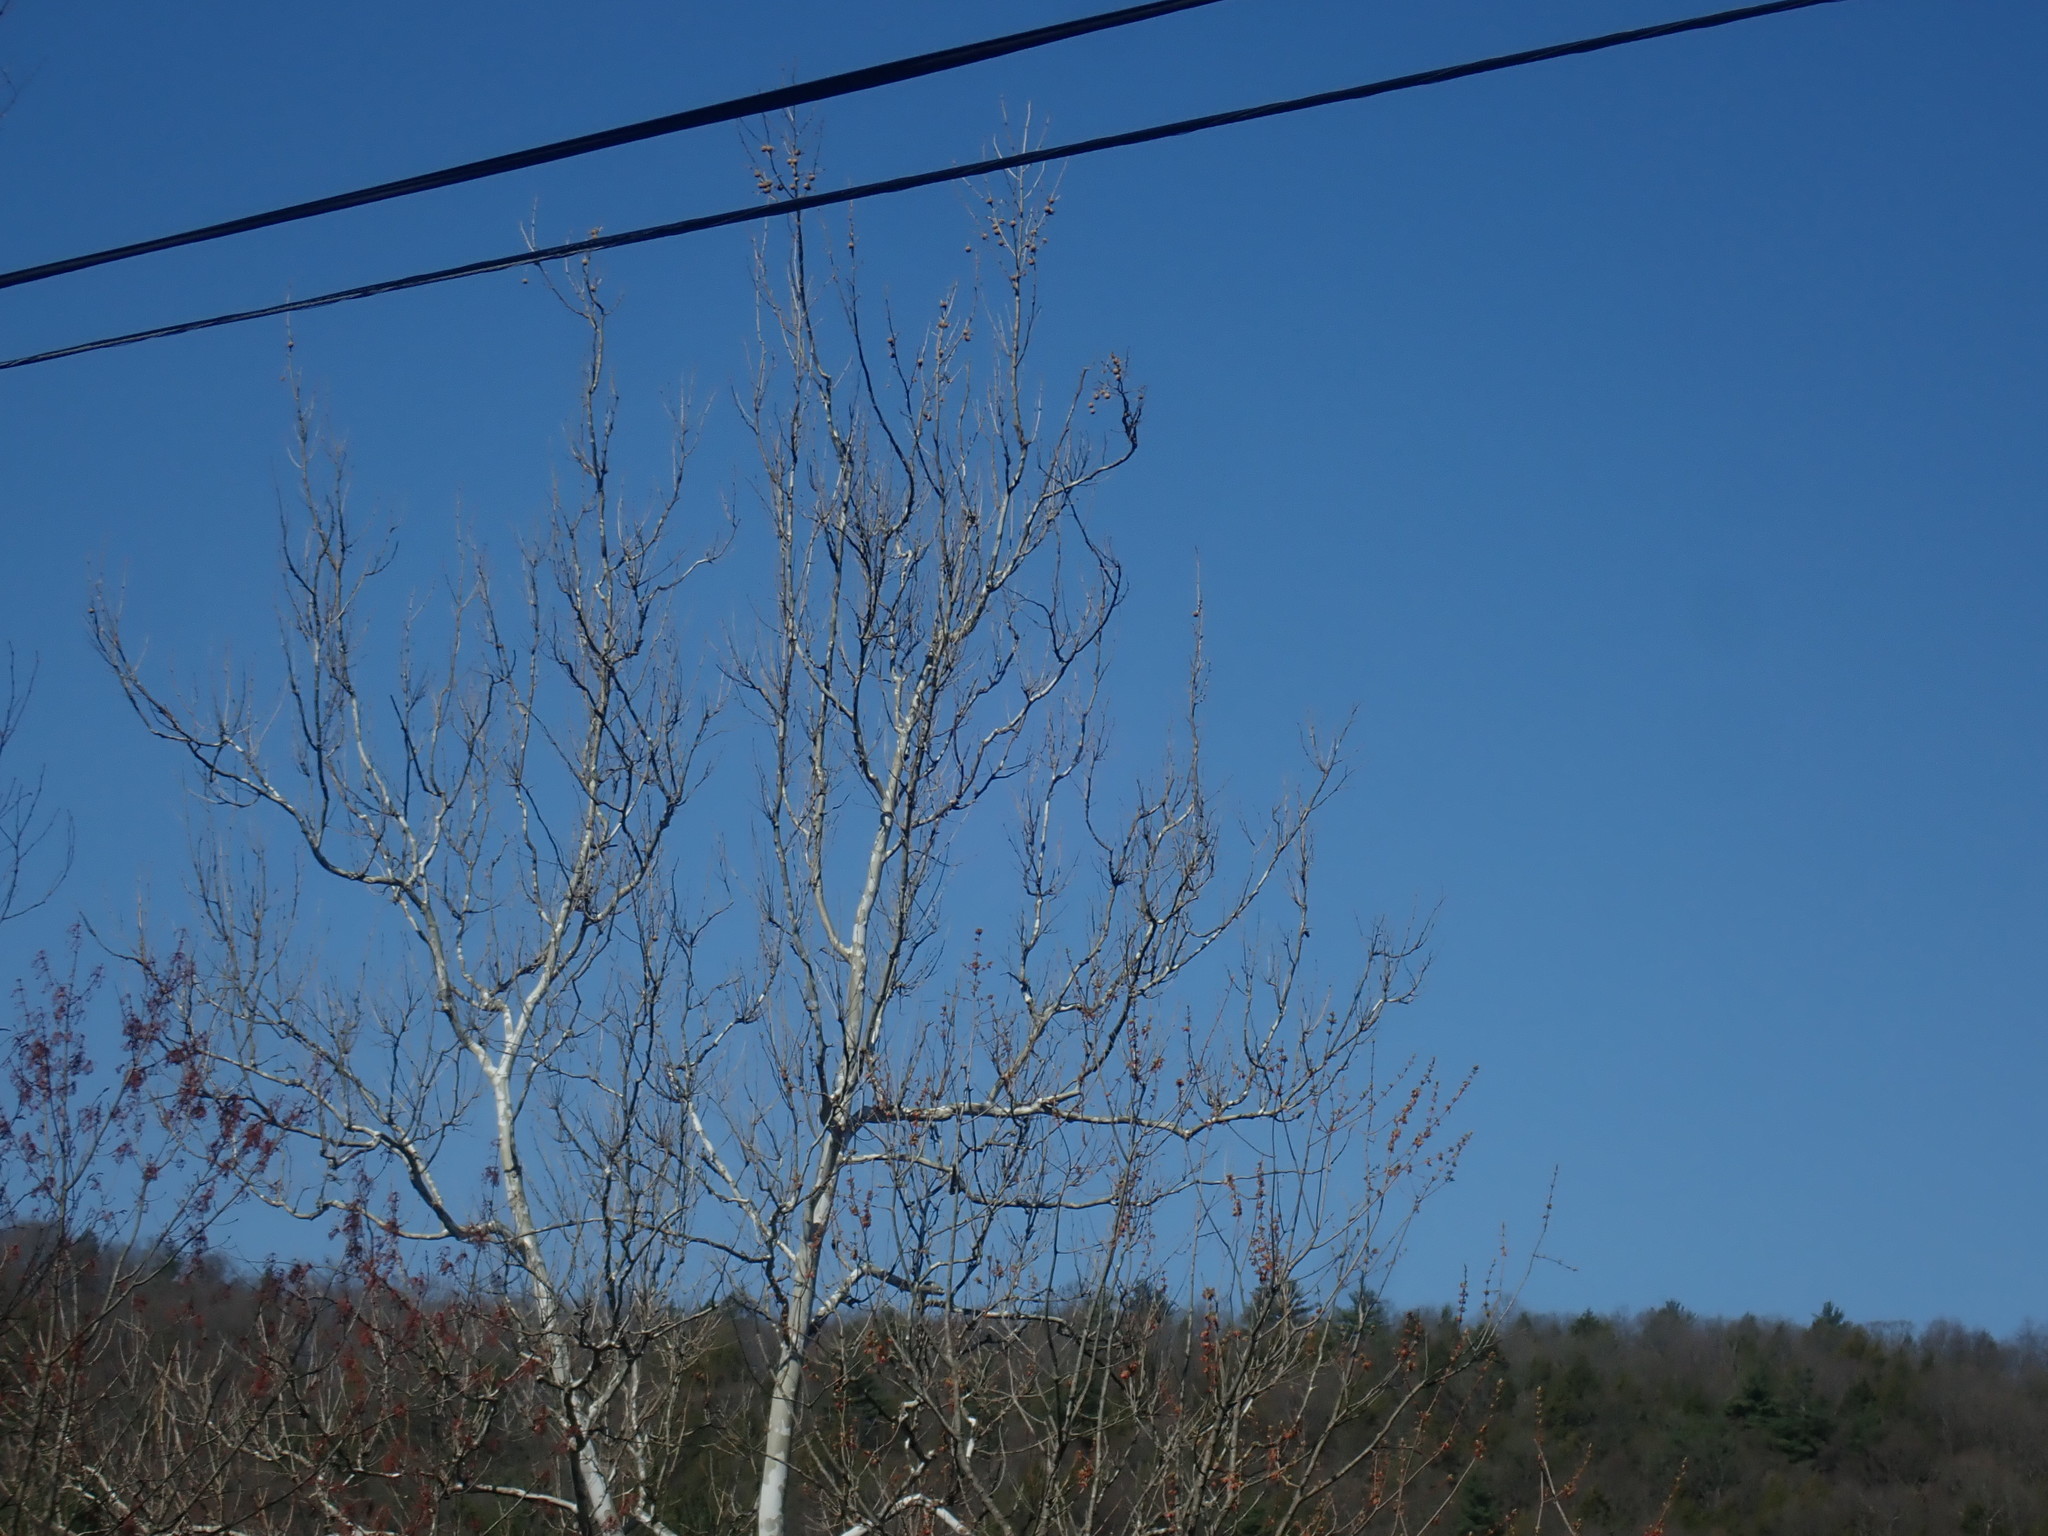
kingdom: Plantae
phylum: Tracheophyta
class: Magnoliopsida
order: Proteales
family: Platanaceae
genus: Platanus
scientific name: Platanus occidentalis
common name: American sycamore
